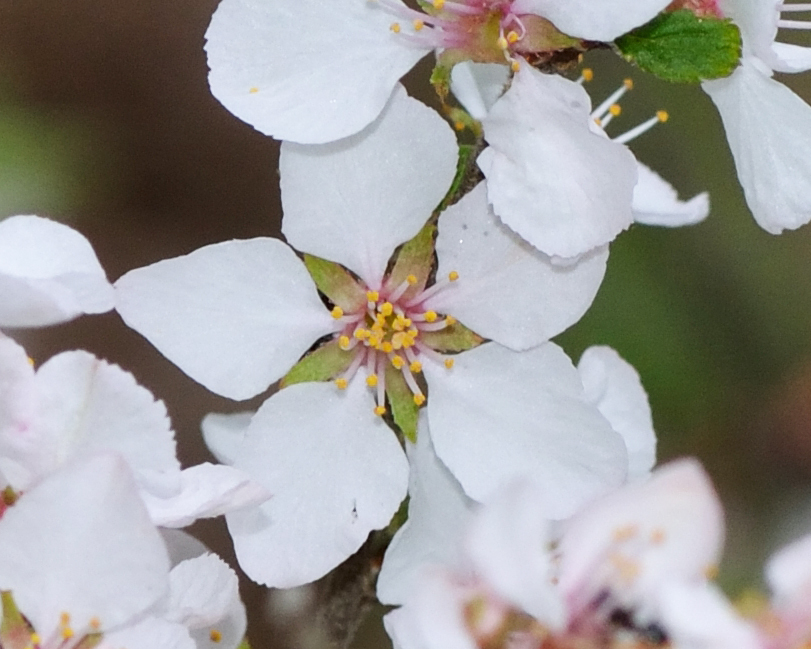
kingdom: Plantae
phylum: Tracheophyta
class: Magnoliopsida
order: Rosales
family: Rosaceae
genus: Prunus
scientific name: Prunus tomentosa
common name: Nanking cherry
